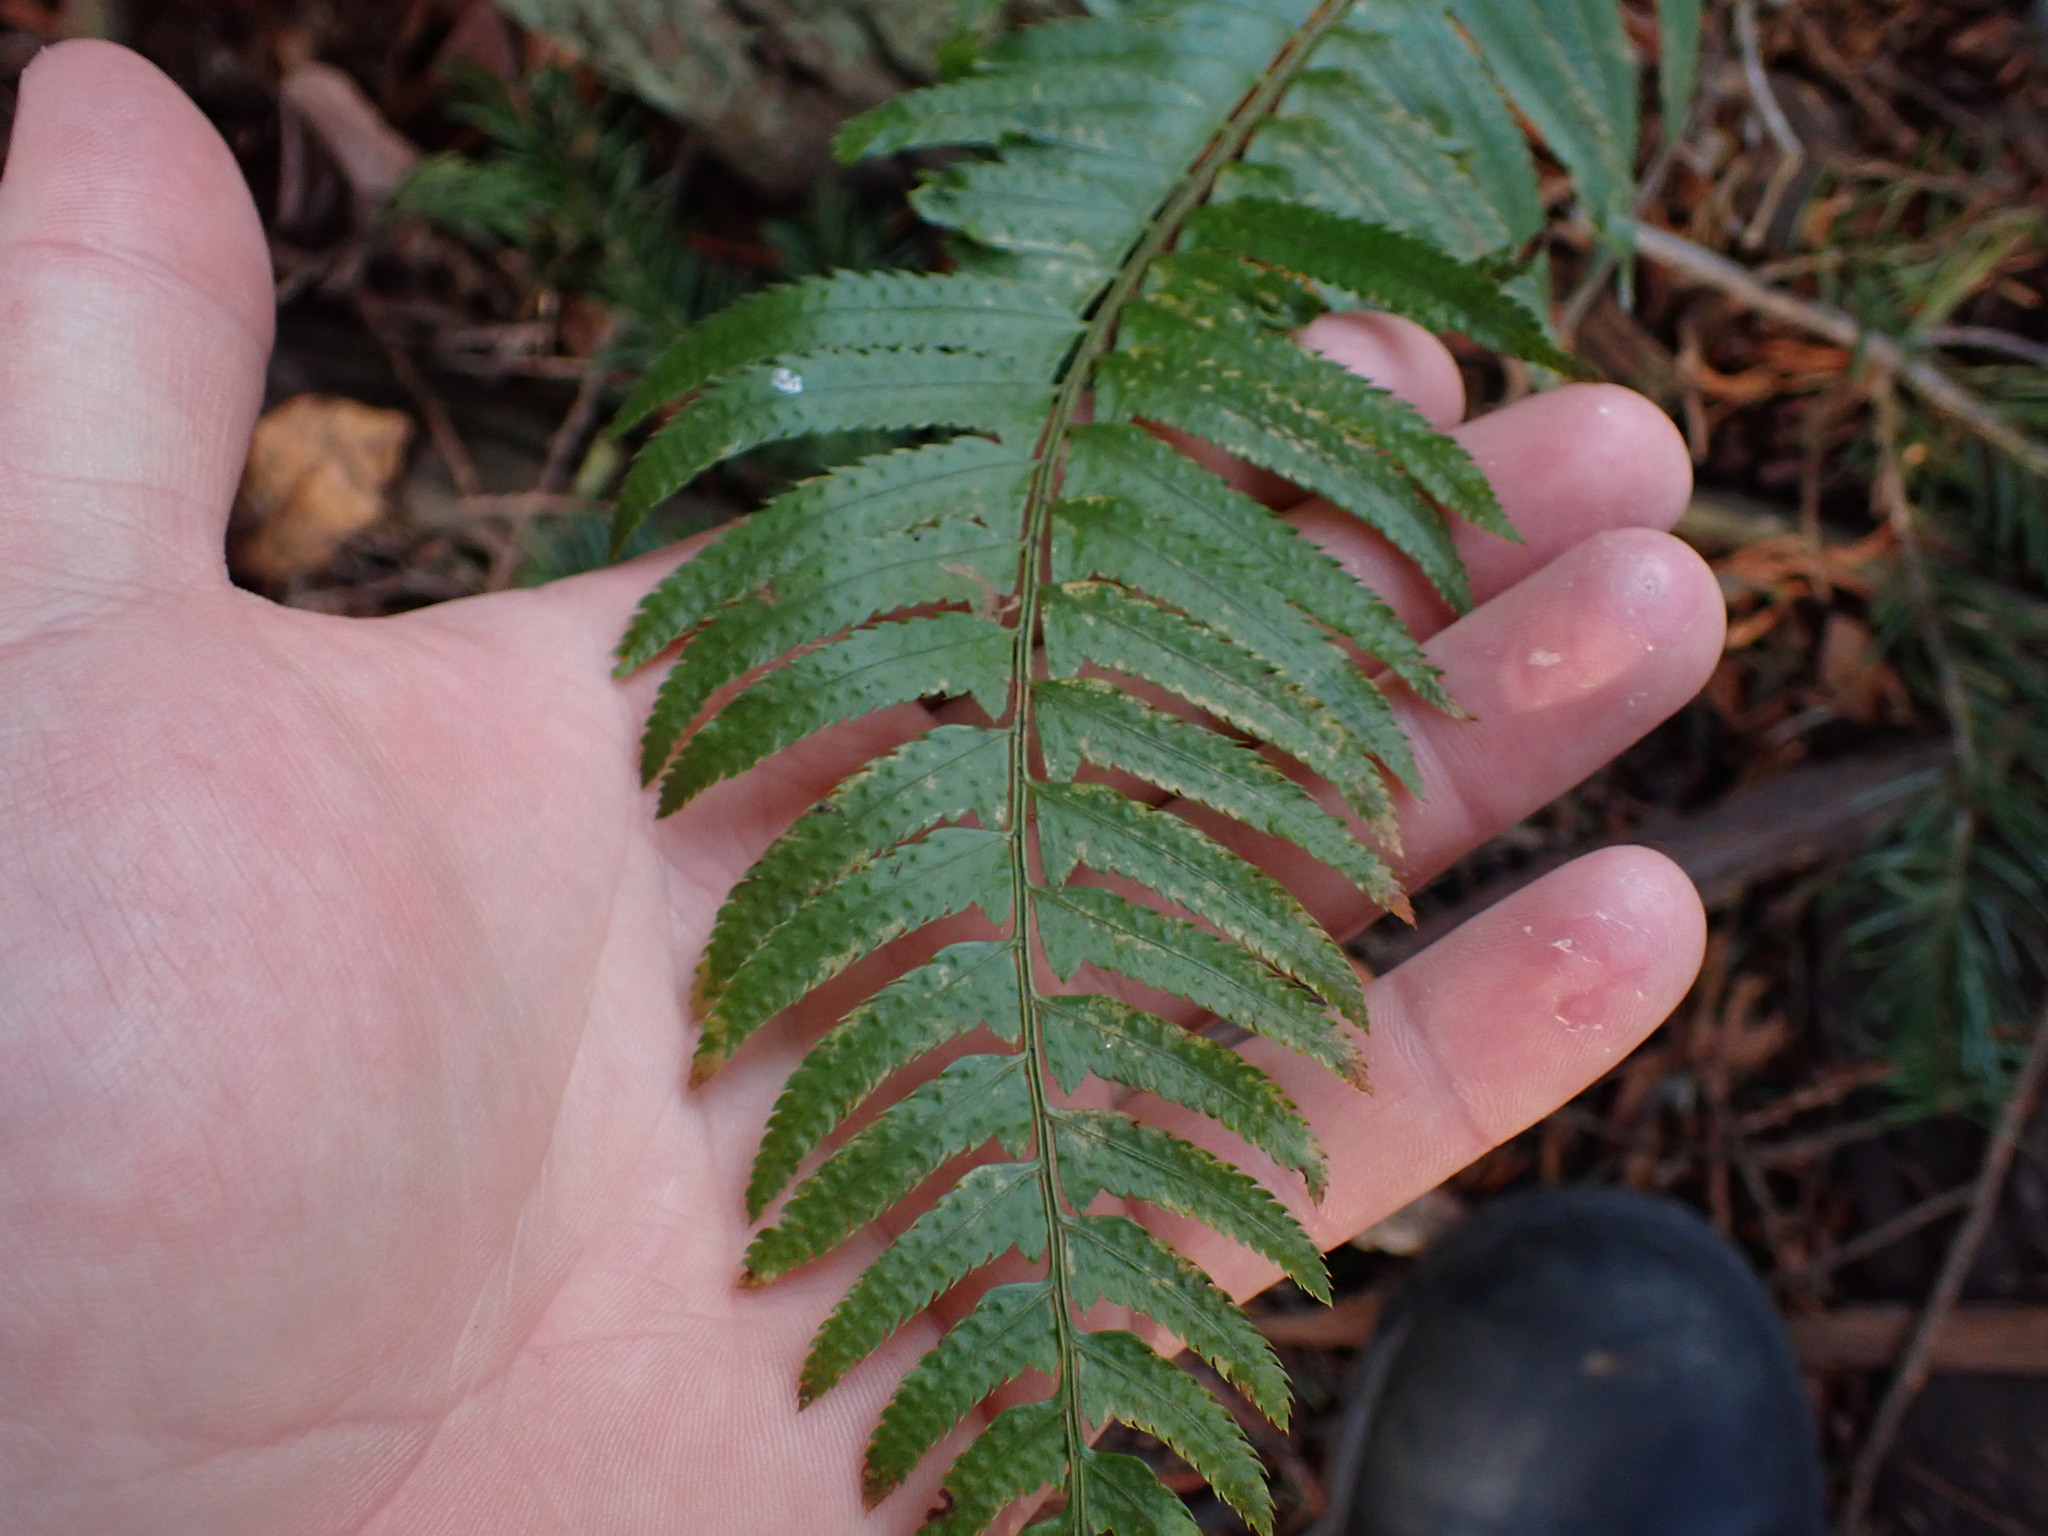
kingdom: Plantae
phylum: Tracheophyta
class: Polypodiopsida
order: Polypodiales
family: Dryopteridaceae
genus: Polystichum
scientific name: Polystichum munitum
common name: Western sword-fern
